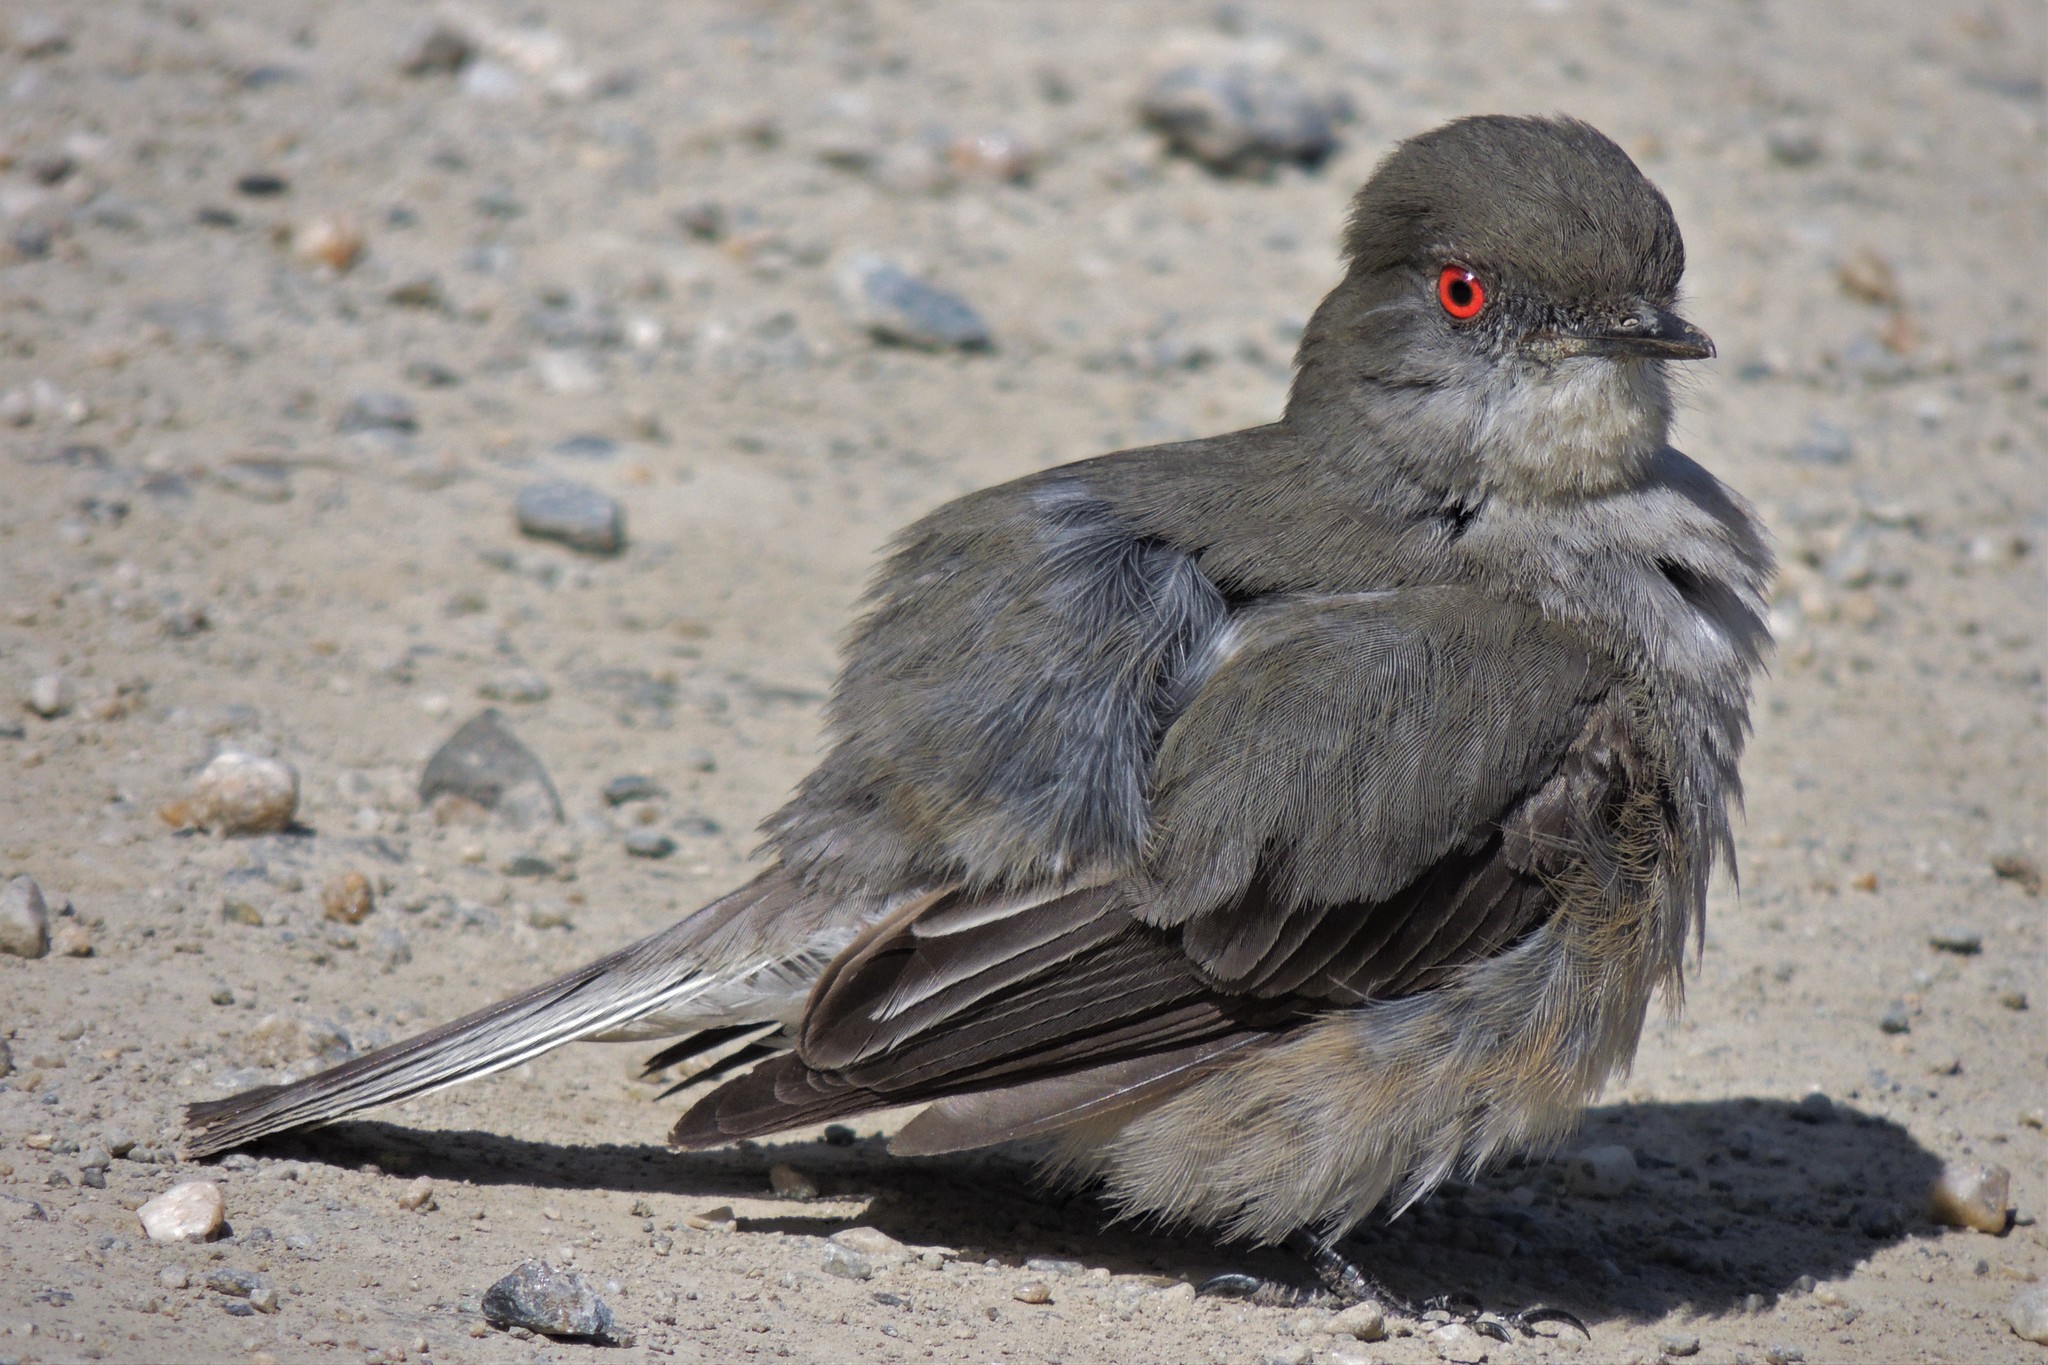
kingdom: Animalia
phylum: Chordata
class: Aves
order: Passeriformes
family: Tyrannidae
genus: Xolmis
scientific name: Xolmis pyrope
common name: Fire-eyed diucon
